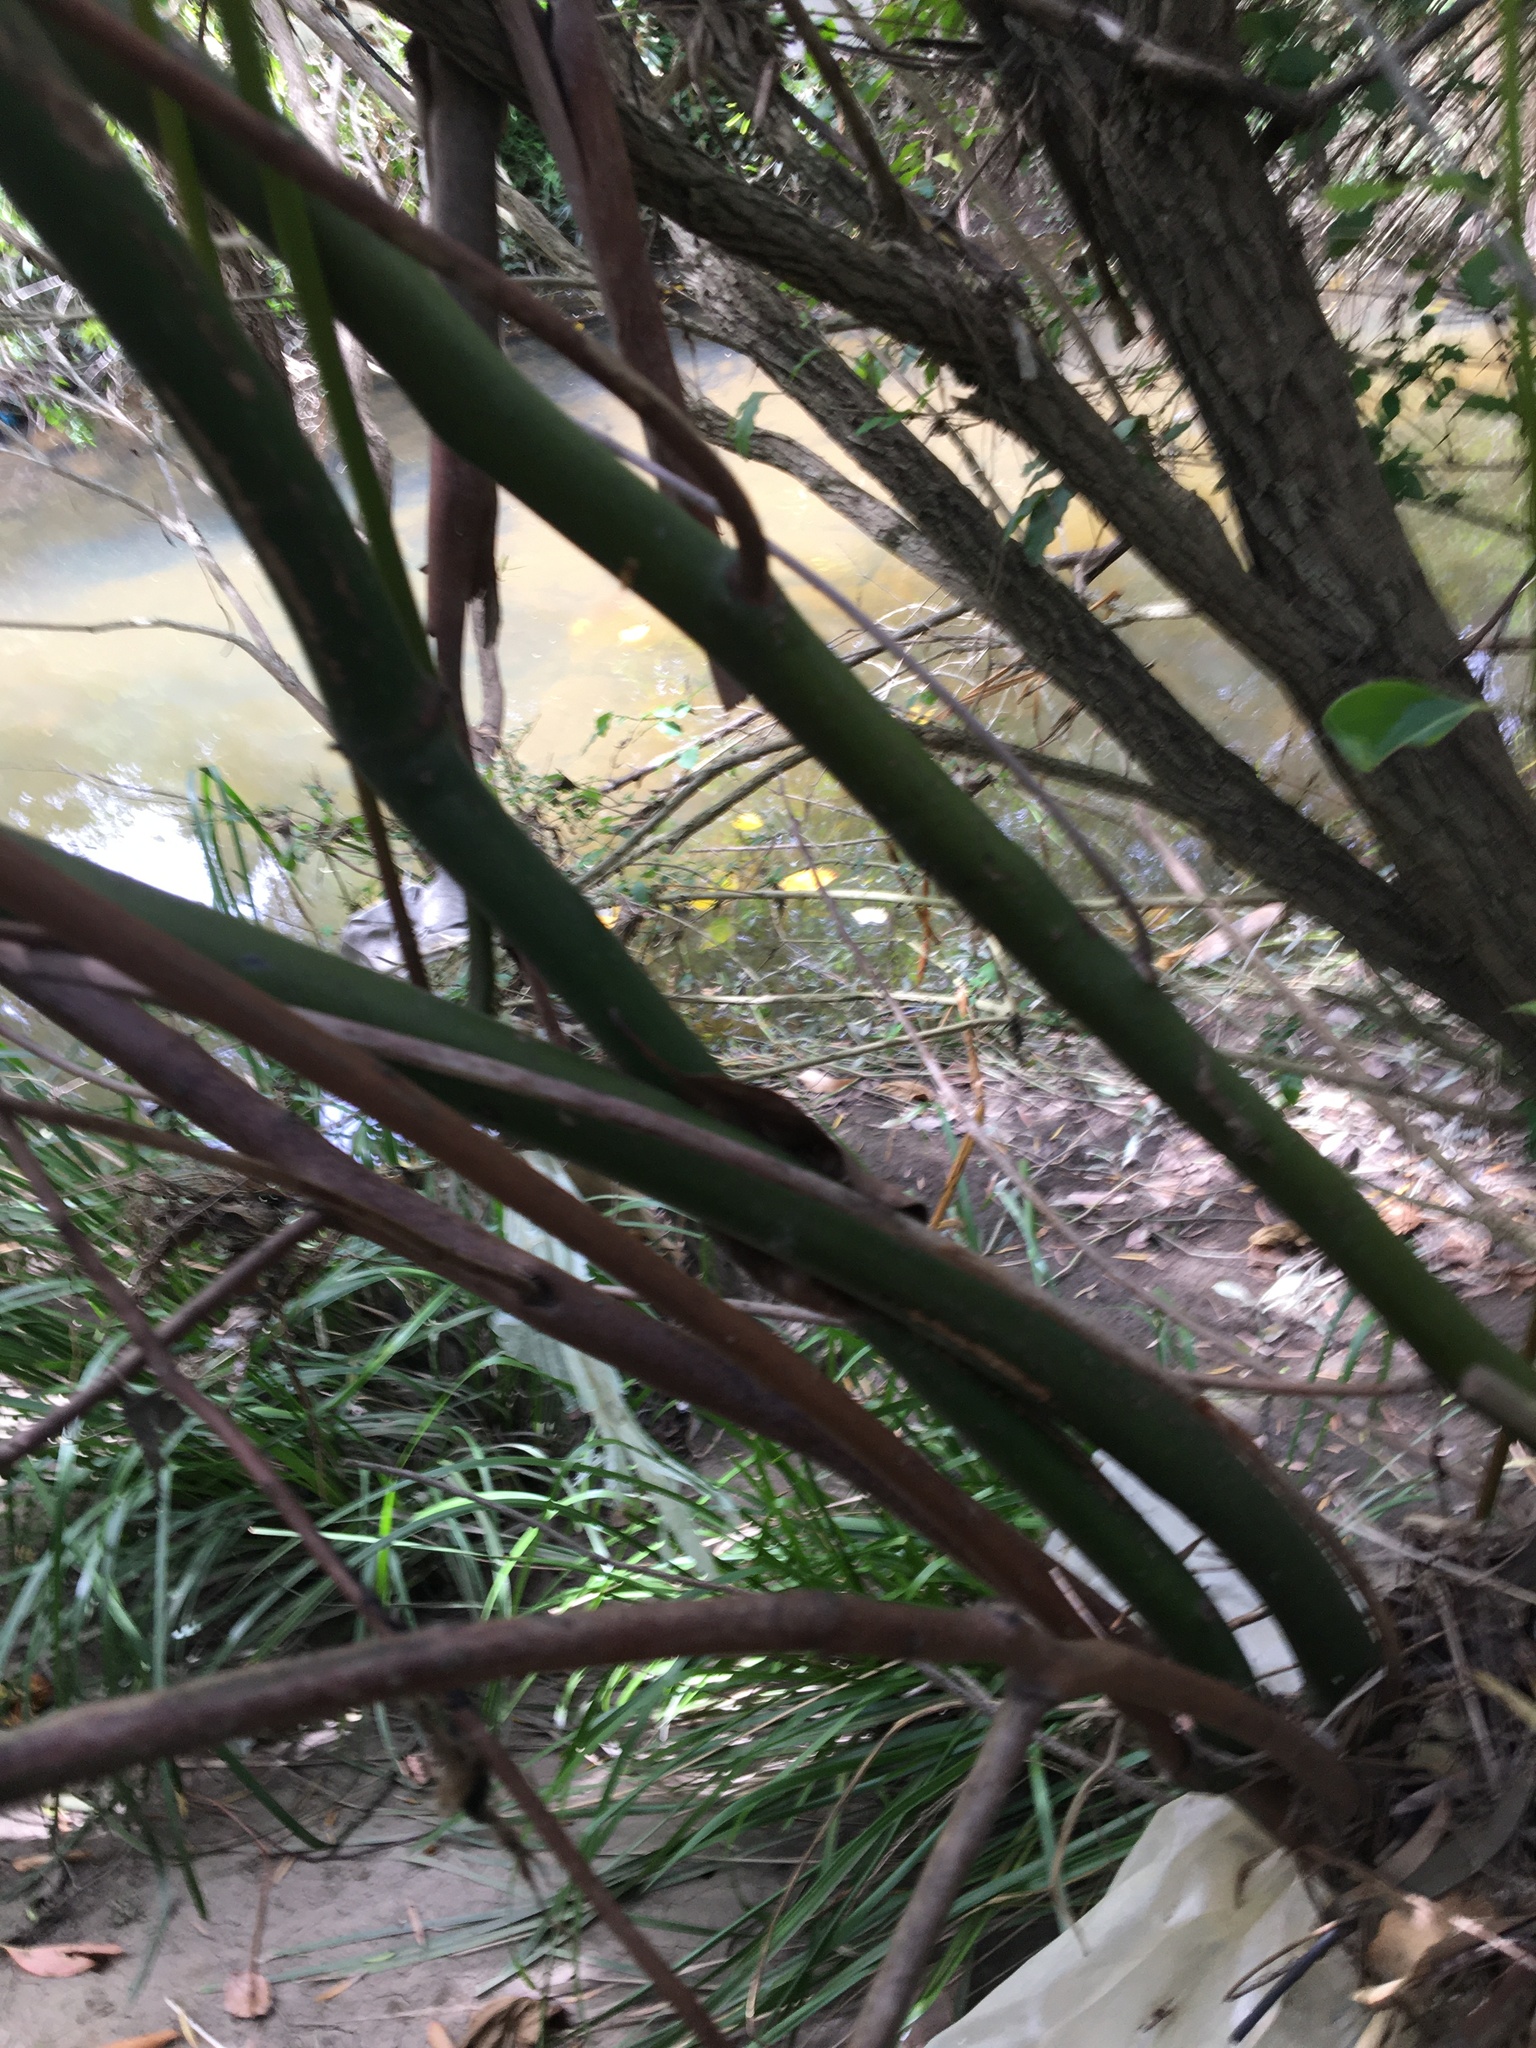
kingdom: Plantae
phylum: Tracheophyta
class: Magnoliopsida
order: Laurales
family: Lauraceae
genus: Cinnamomum
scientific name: Cinnamomum camphora
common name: Camphortree
